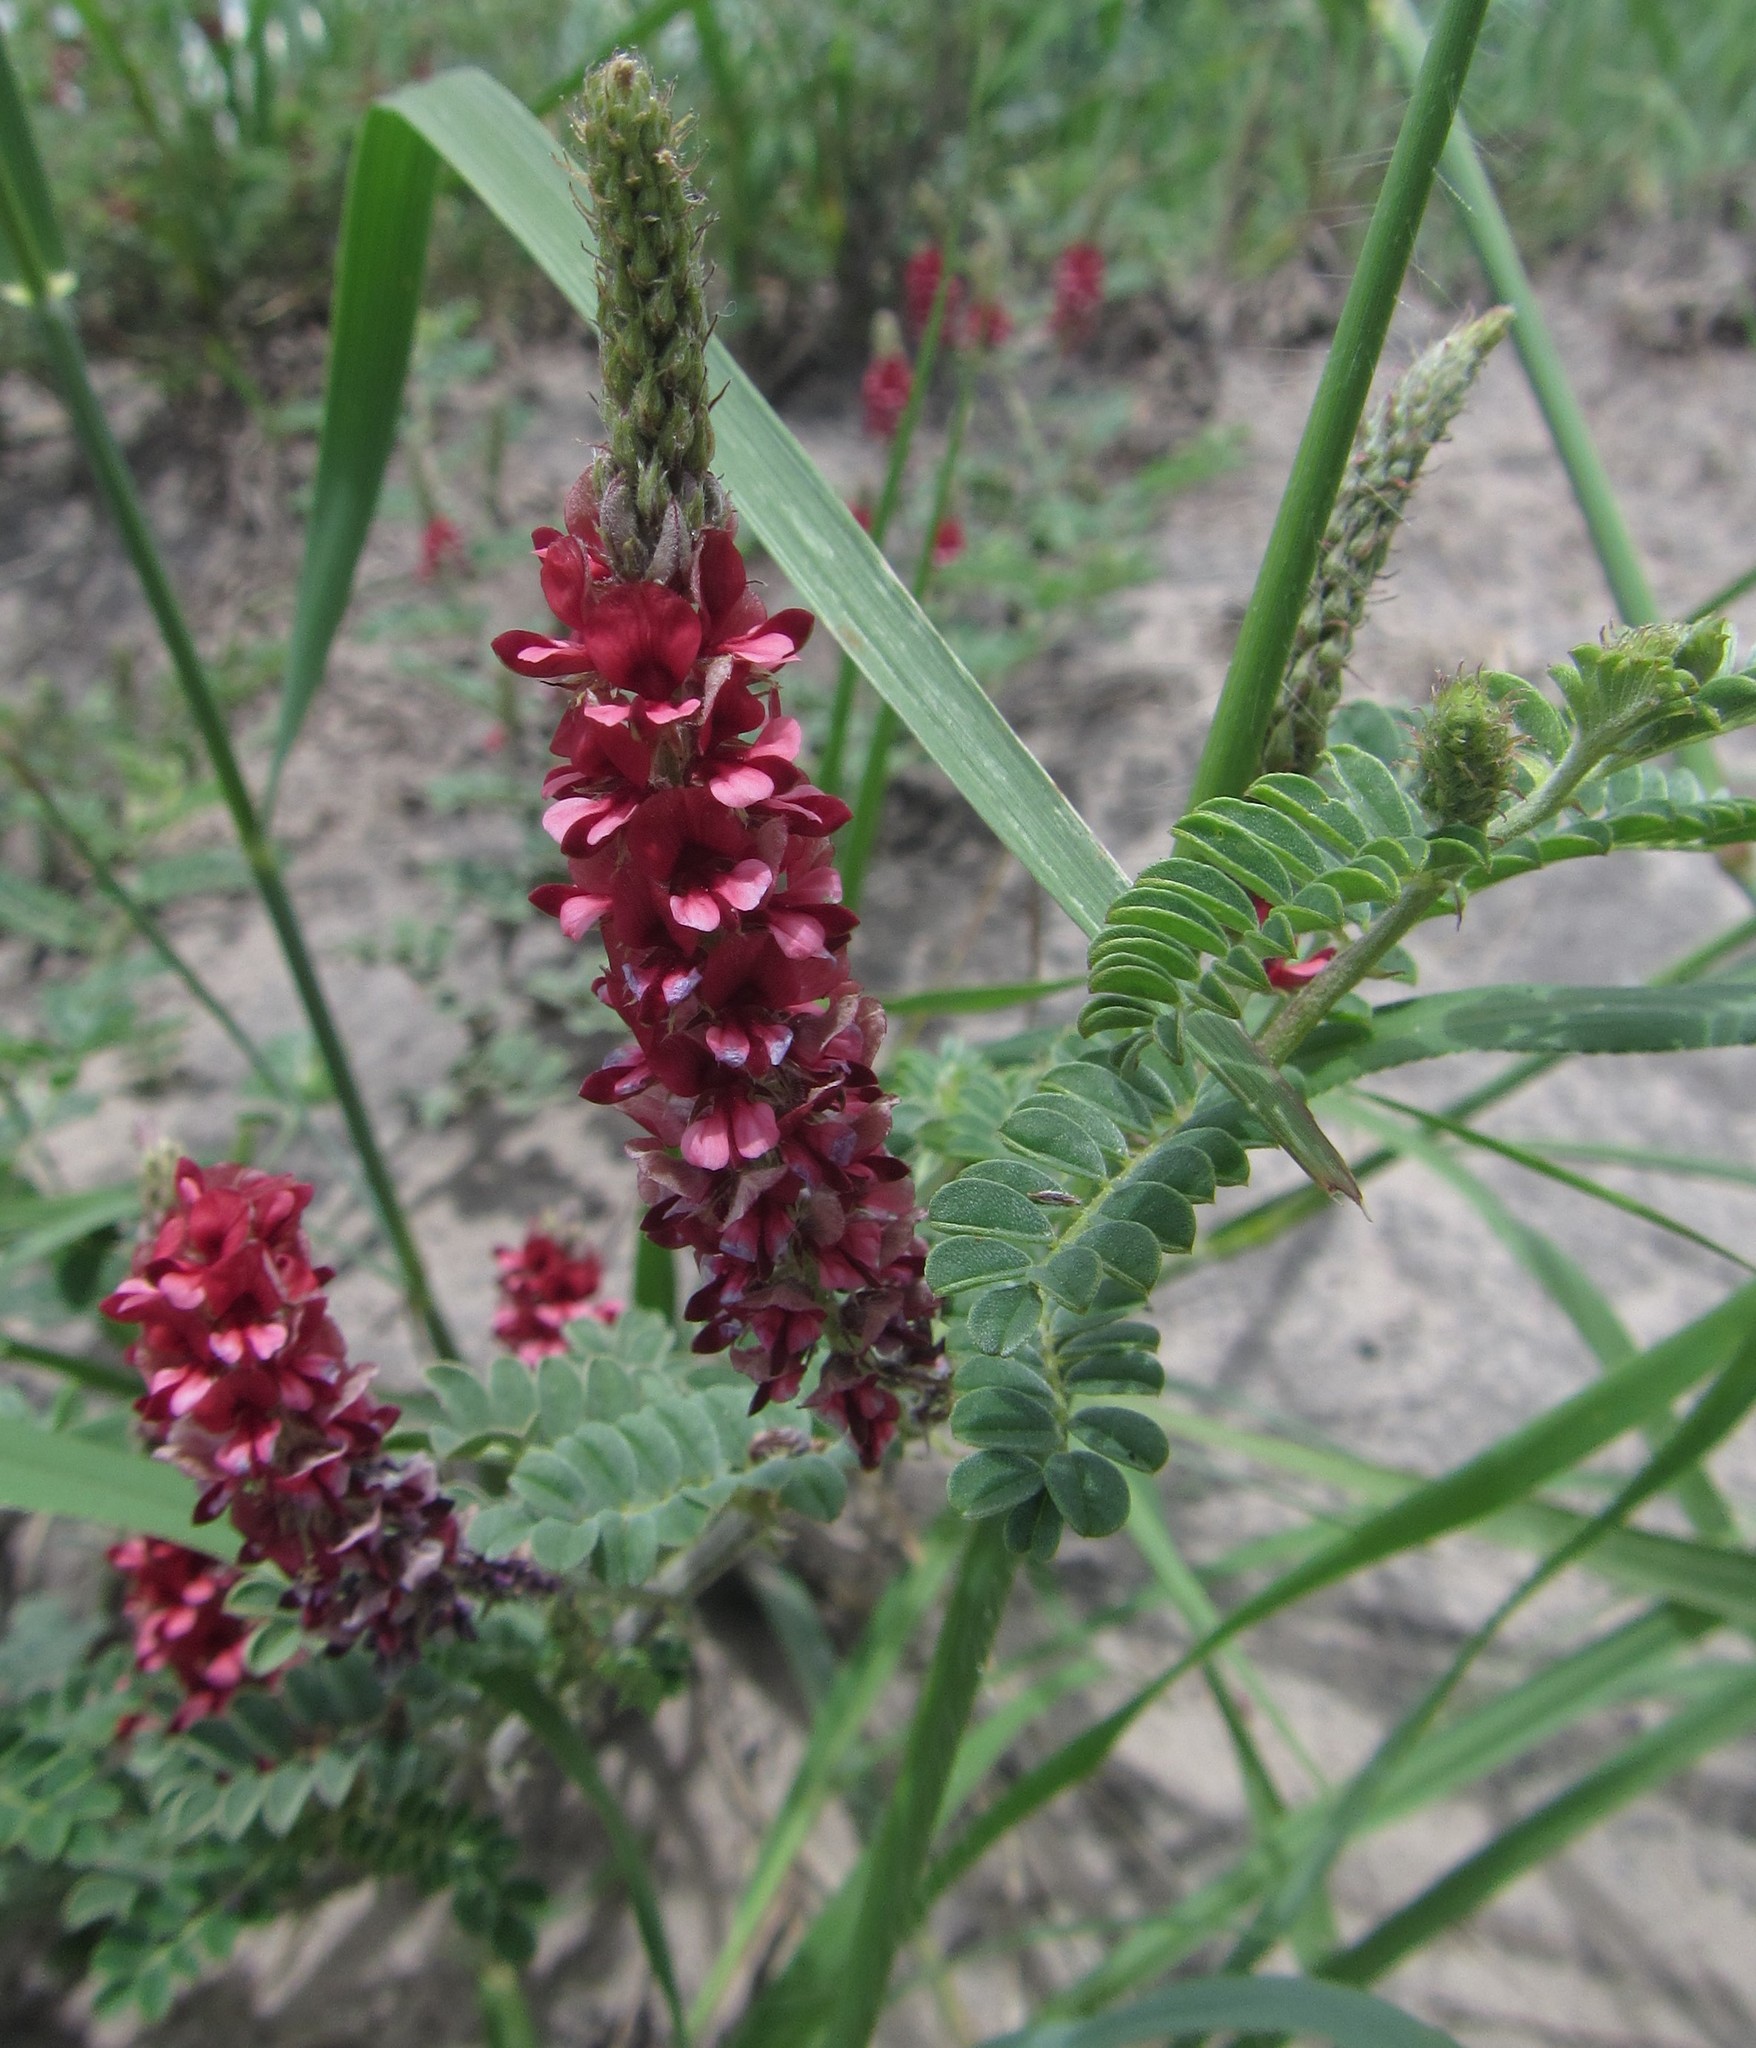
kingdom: Plantae
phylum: Tracheophyta
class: Magnoliopsida
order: Fabales
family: Fabaceae
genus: Indigofera
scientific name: Indigofera daleoides
